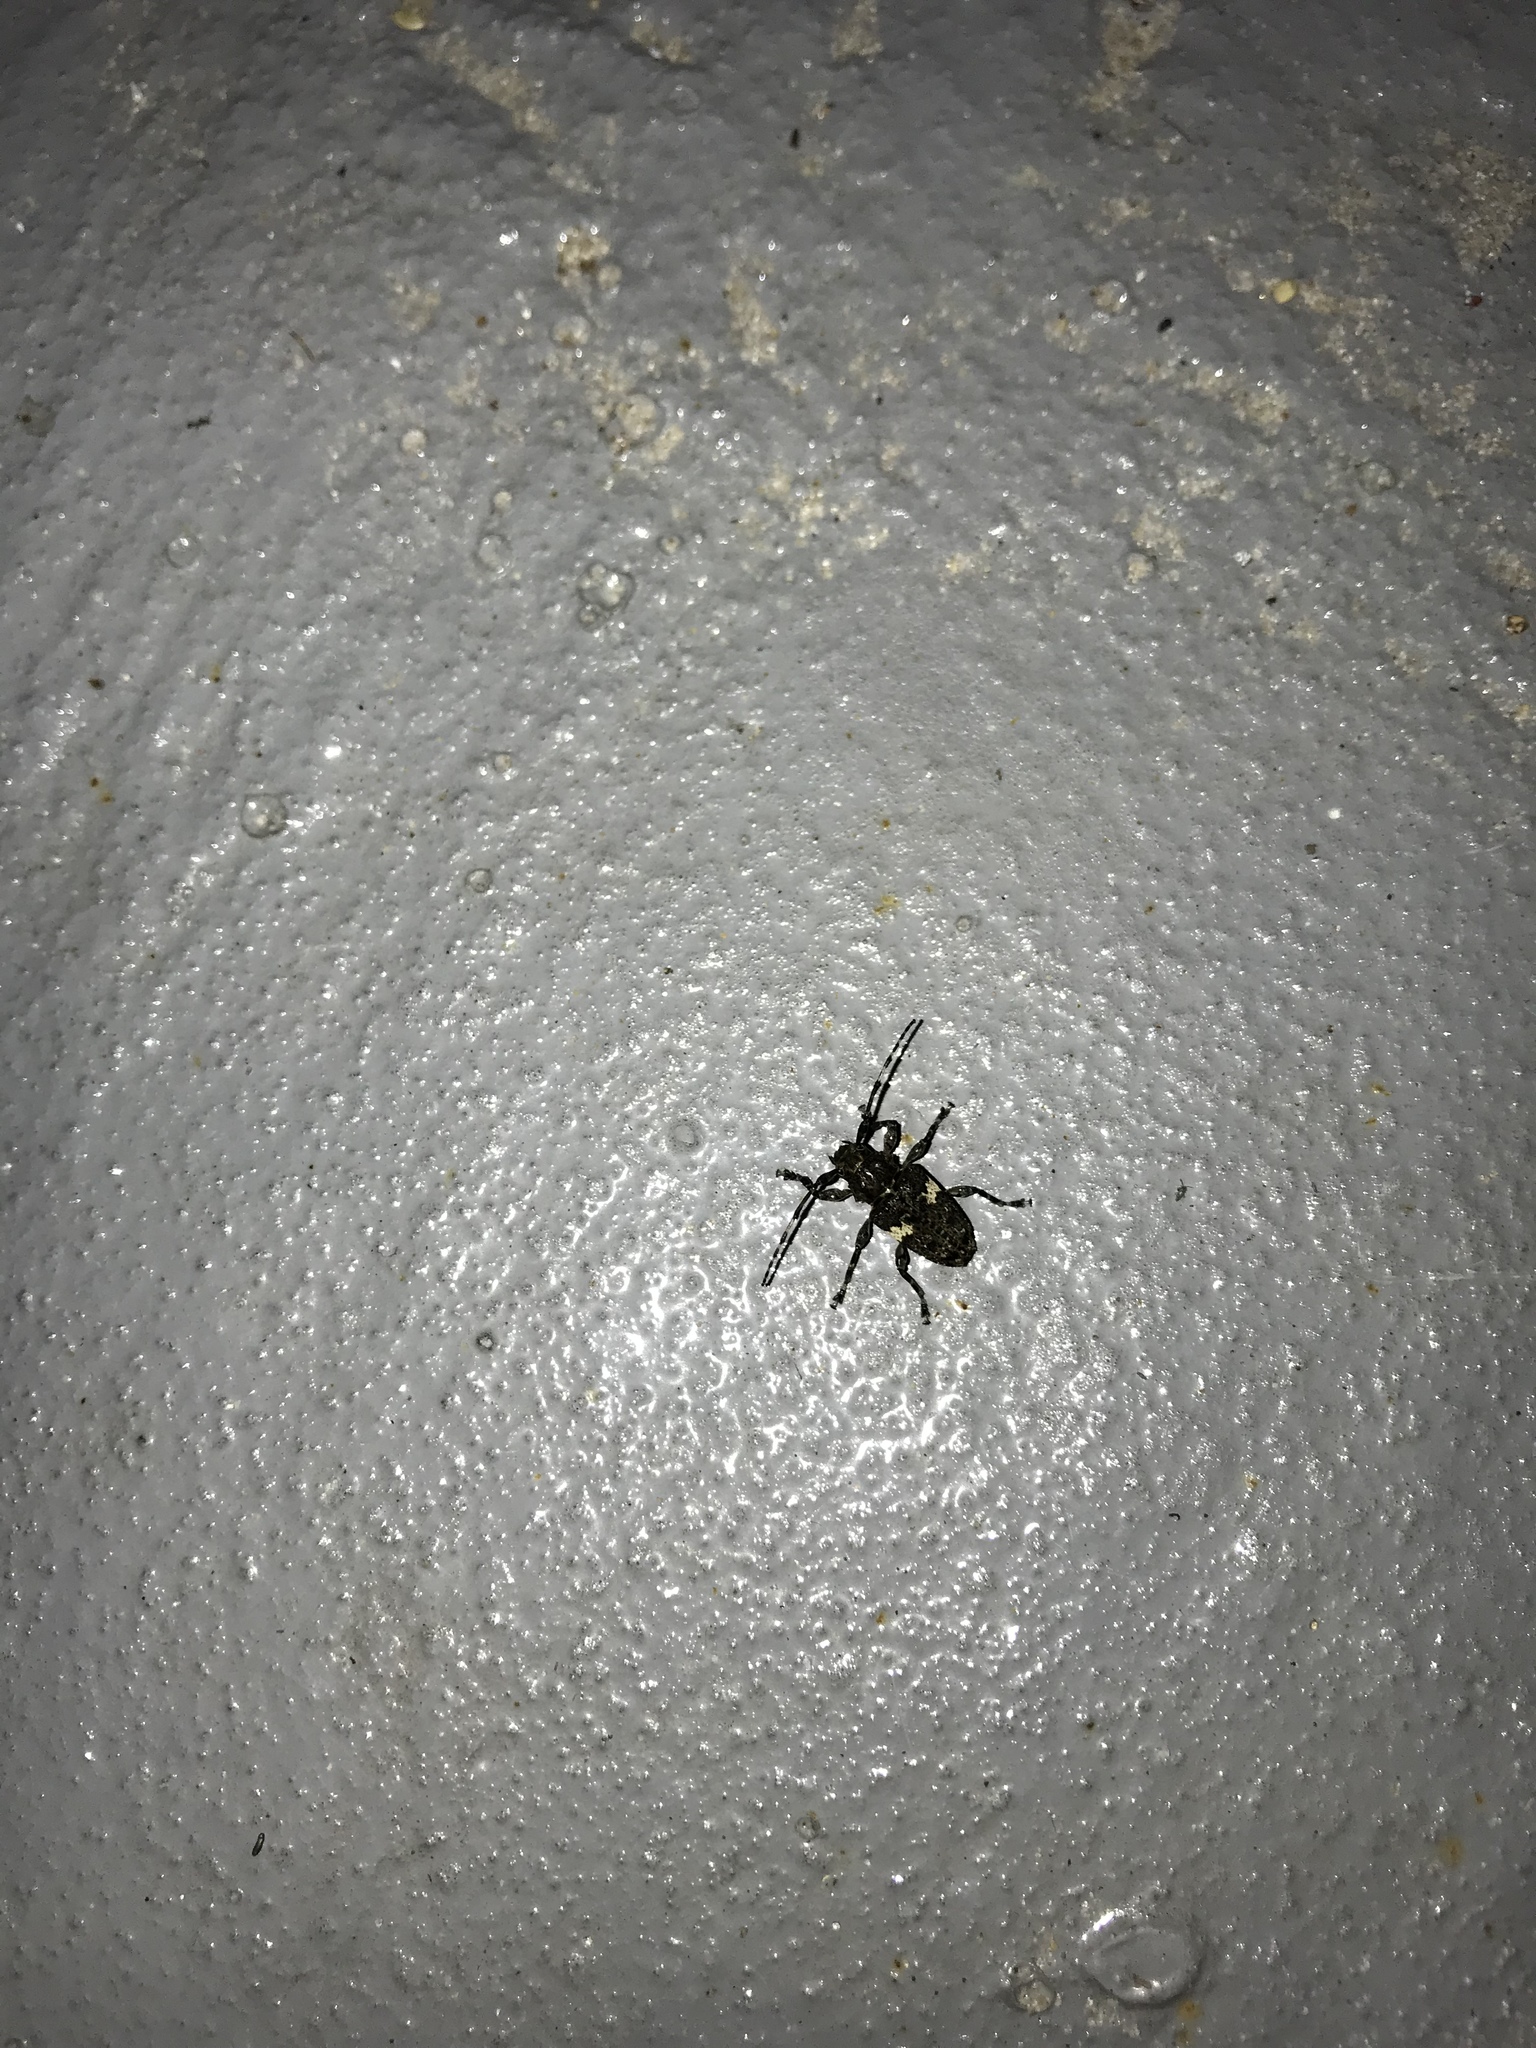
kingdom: Animalia
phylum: Arthropoda
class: Insecta
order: Coleoptera
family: Cerambycidae
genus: Acanthoderes
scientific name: Acanthoderes quadrigibba
